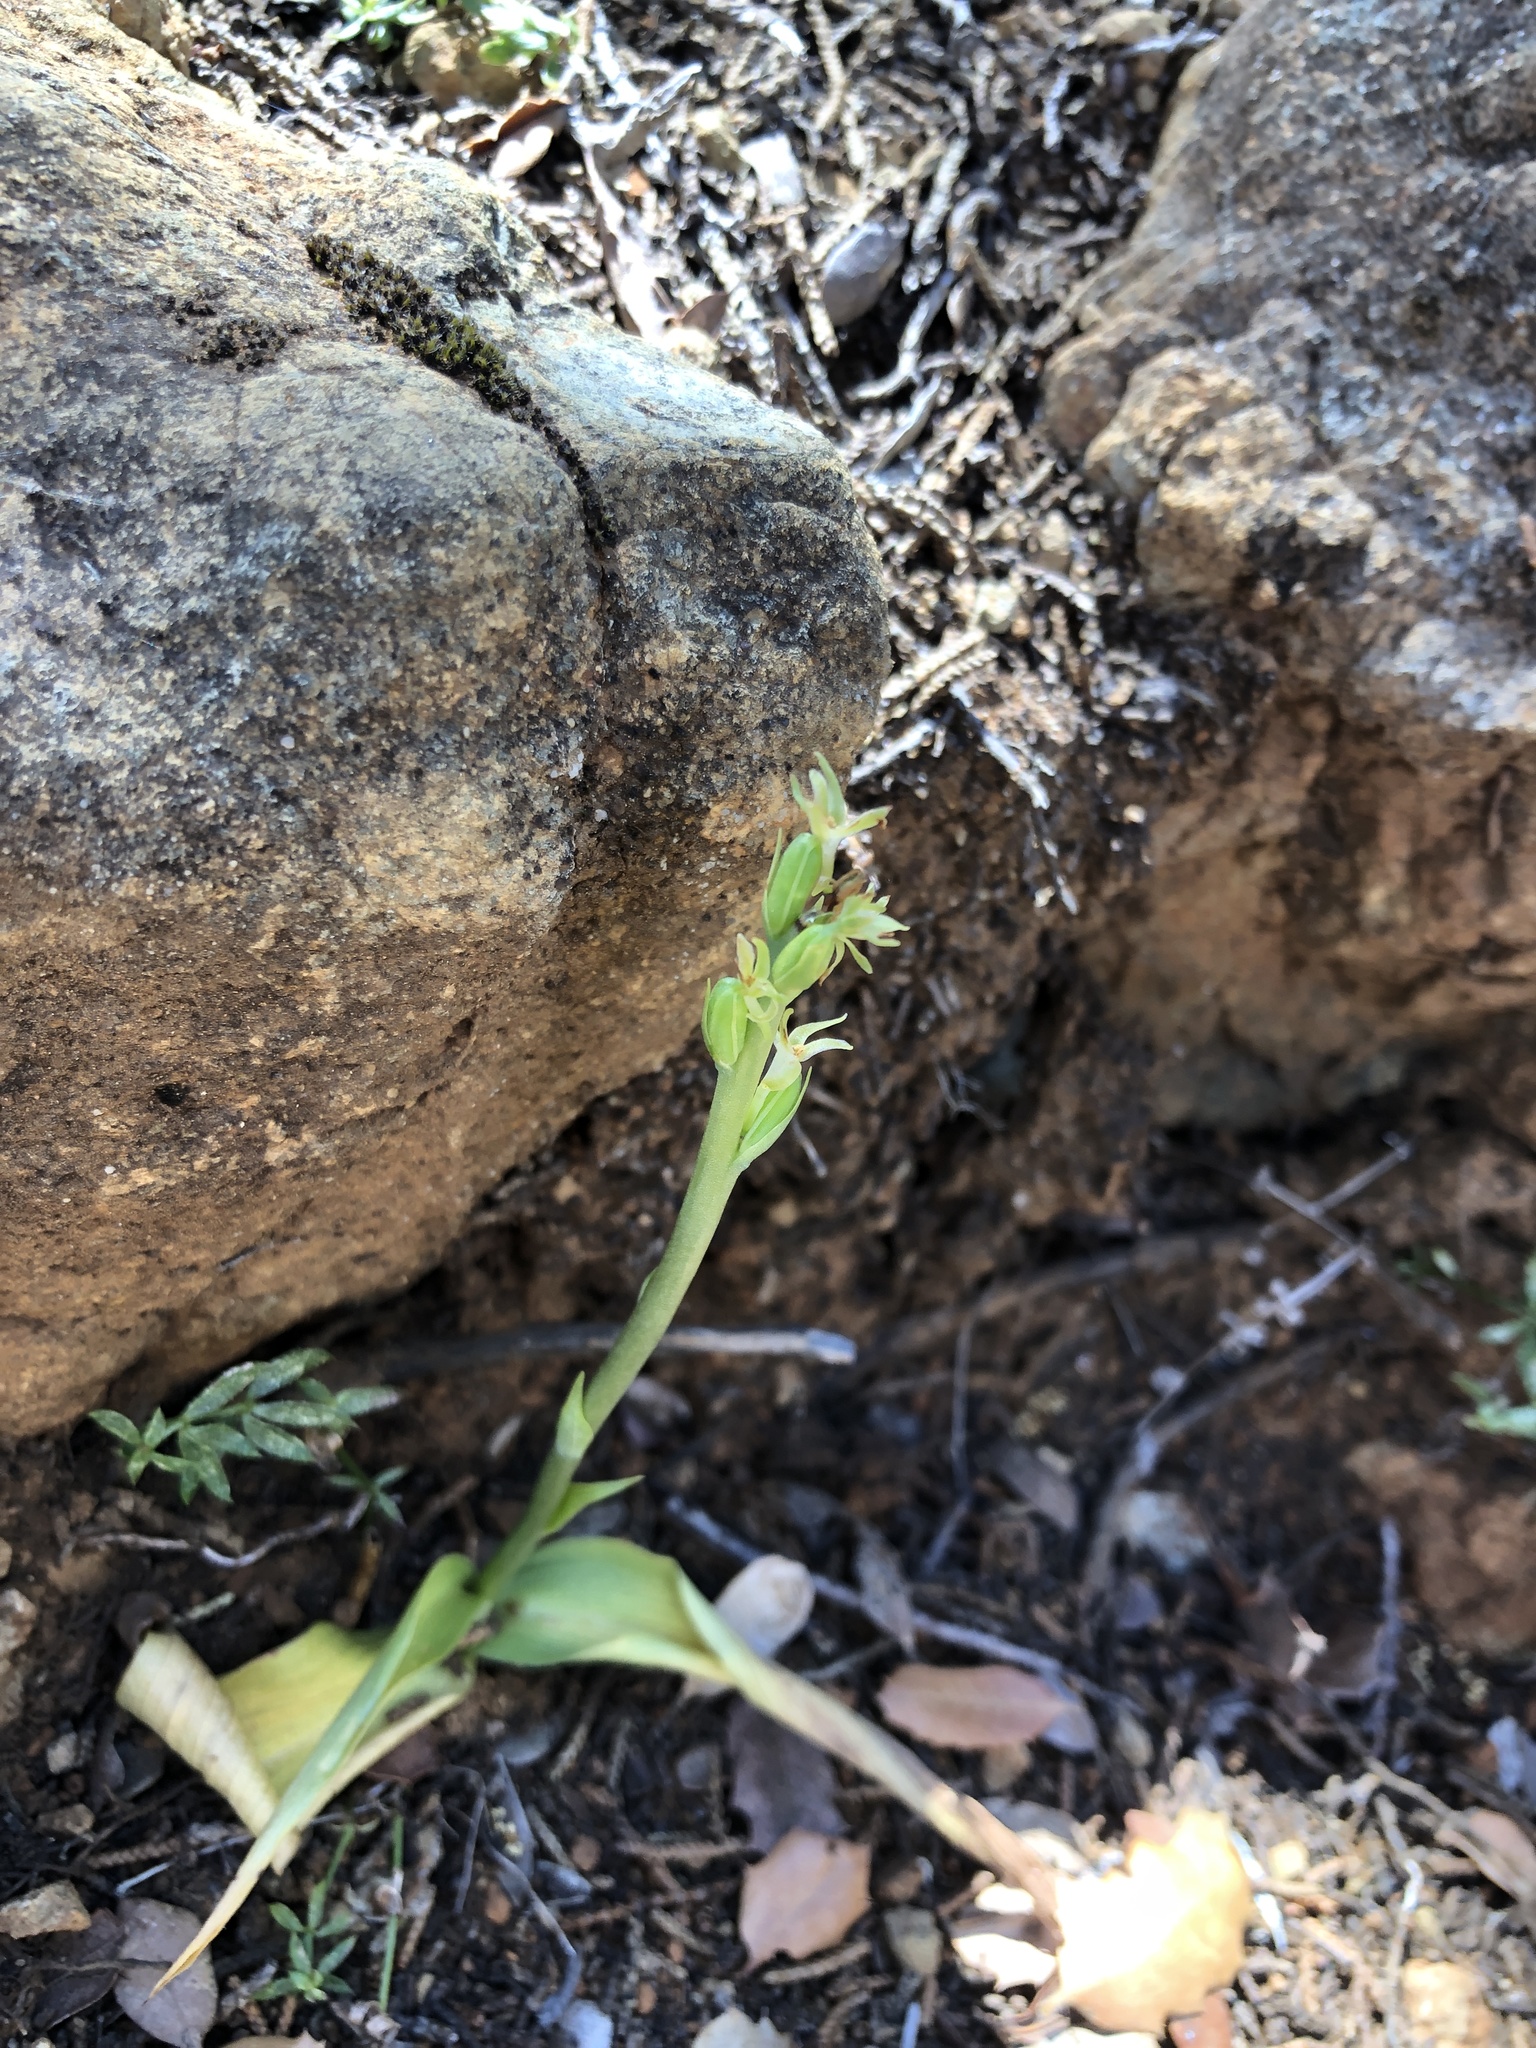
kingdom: Plantae
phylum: Tracheophyta
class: Liliopsida
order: Asparagales
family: Orchidaceae
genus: Platanthera
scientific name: Platanthera leptopetala
